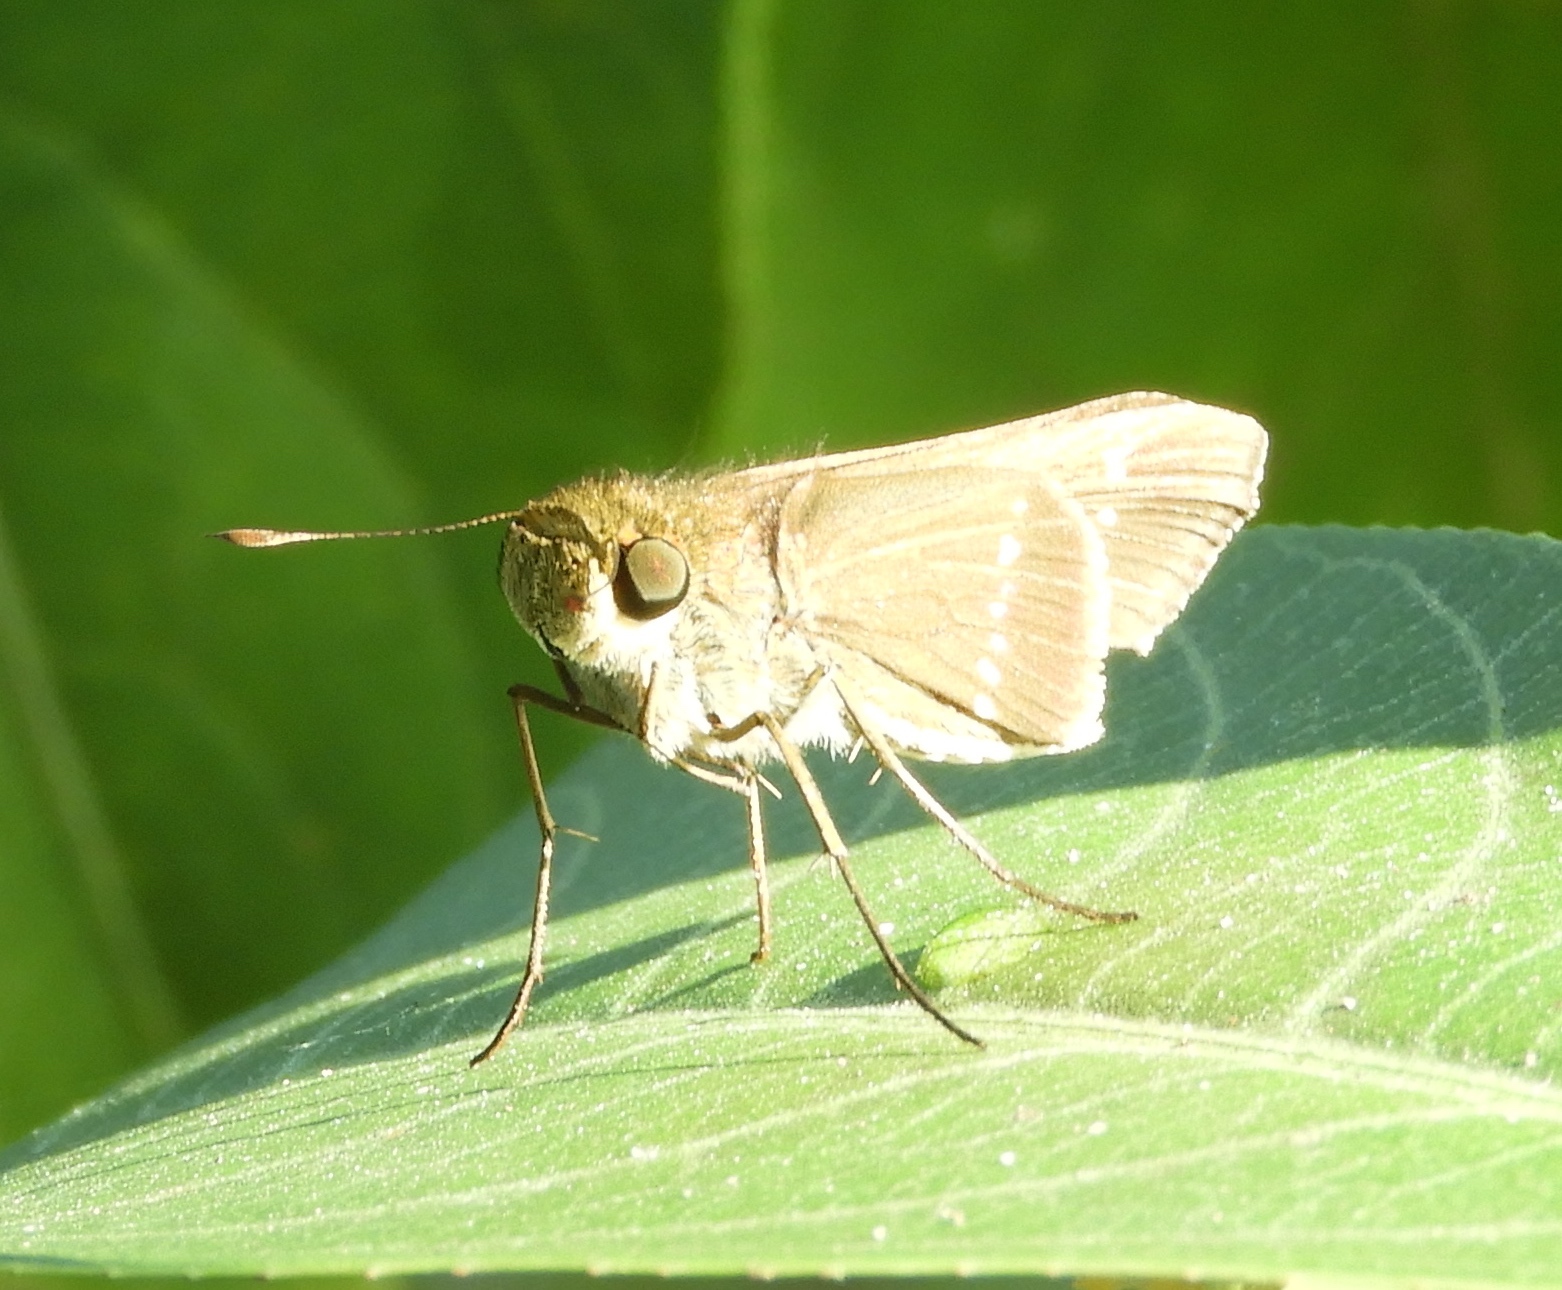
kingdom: Animalia
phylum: Arthropoda
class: Insecta
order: Lepidoptera
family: Hesperiidae
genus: Panoquina
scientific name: Panoquina
